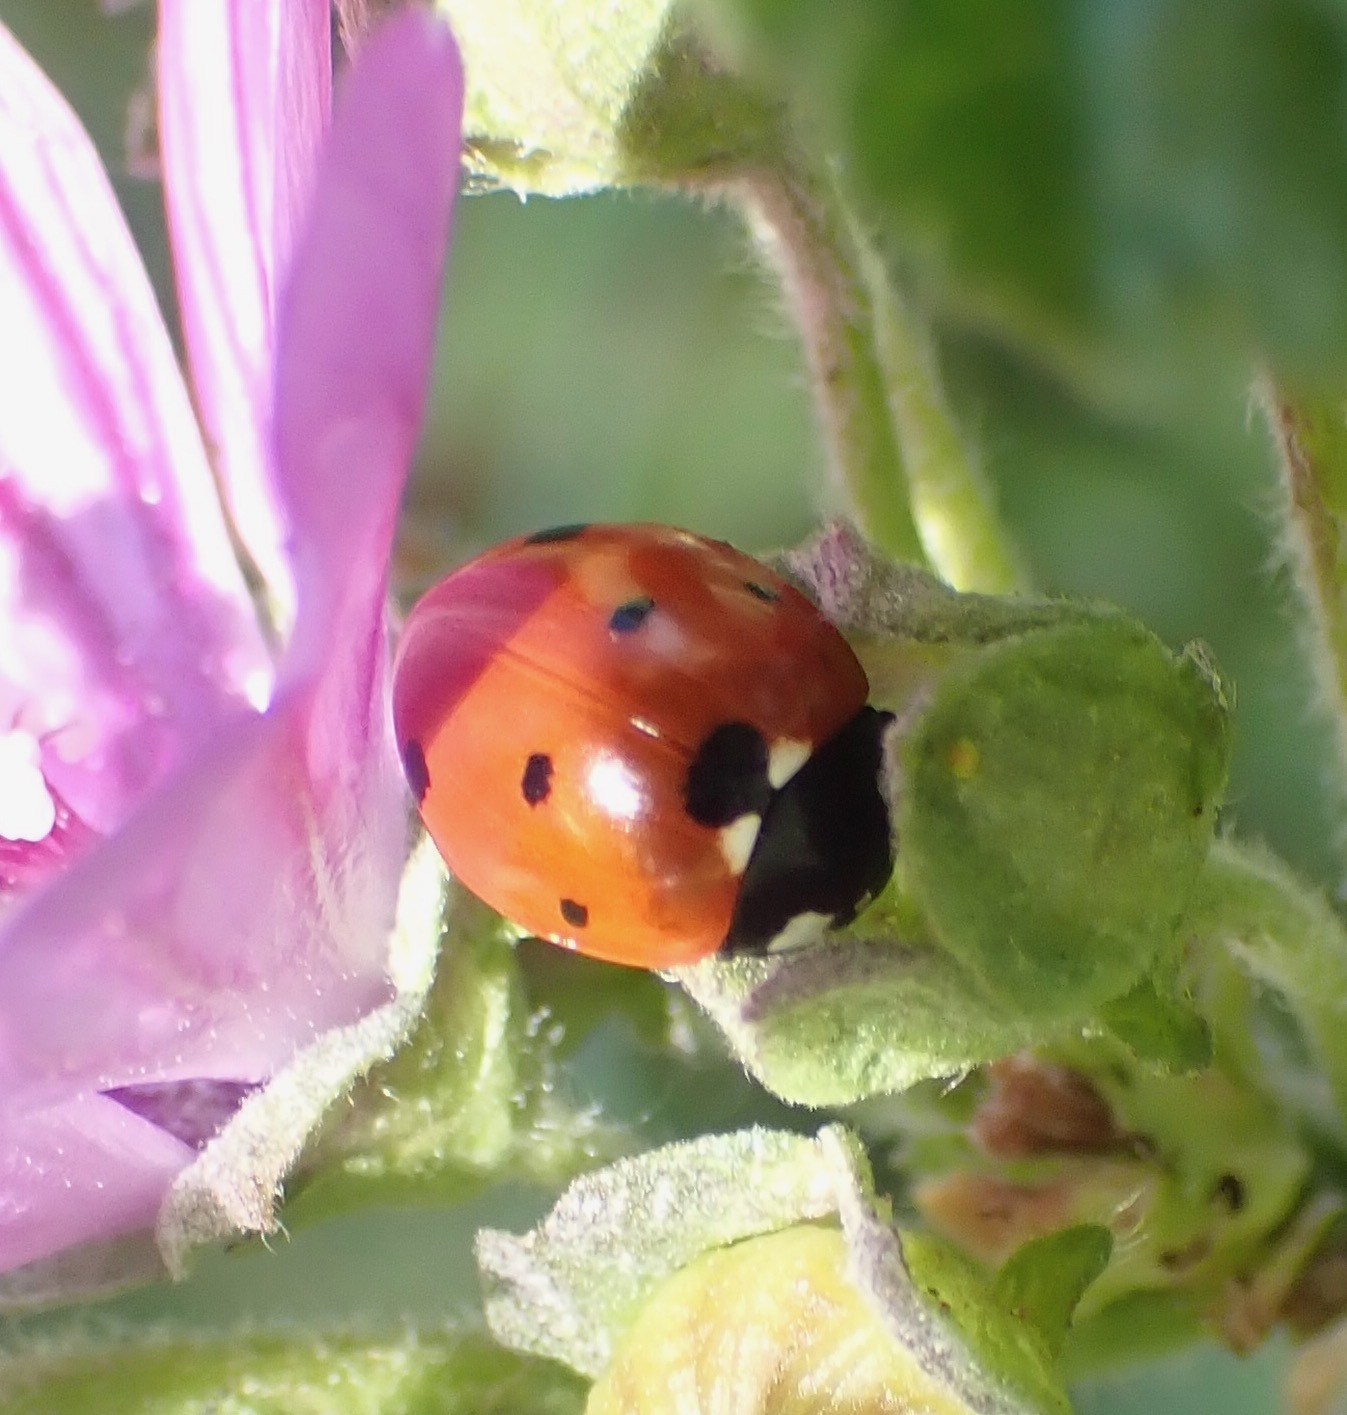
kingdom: Animalia
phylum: Arthropoda
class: Insecta
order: Coleoptera
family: Coccinellidae
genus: Coccinella
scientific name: Coccinella septempunctata
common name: Sevenspotted lady beetle
